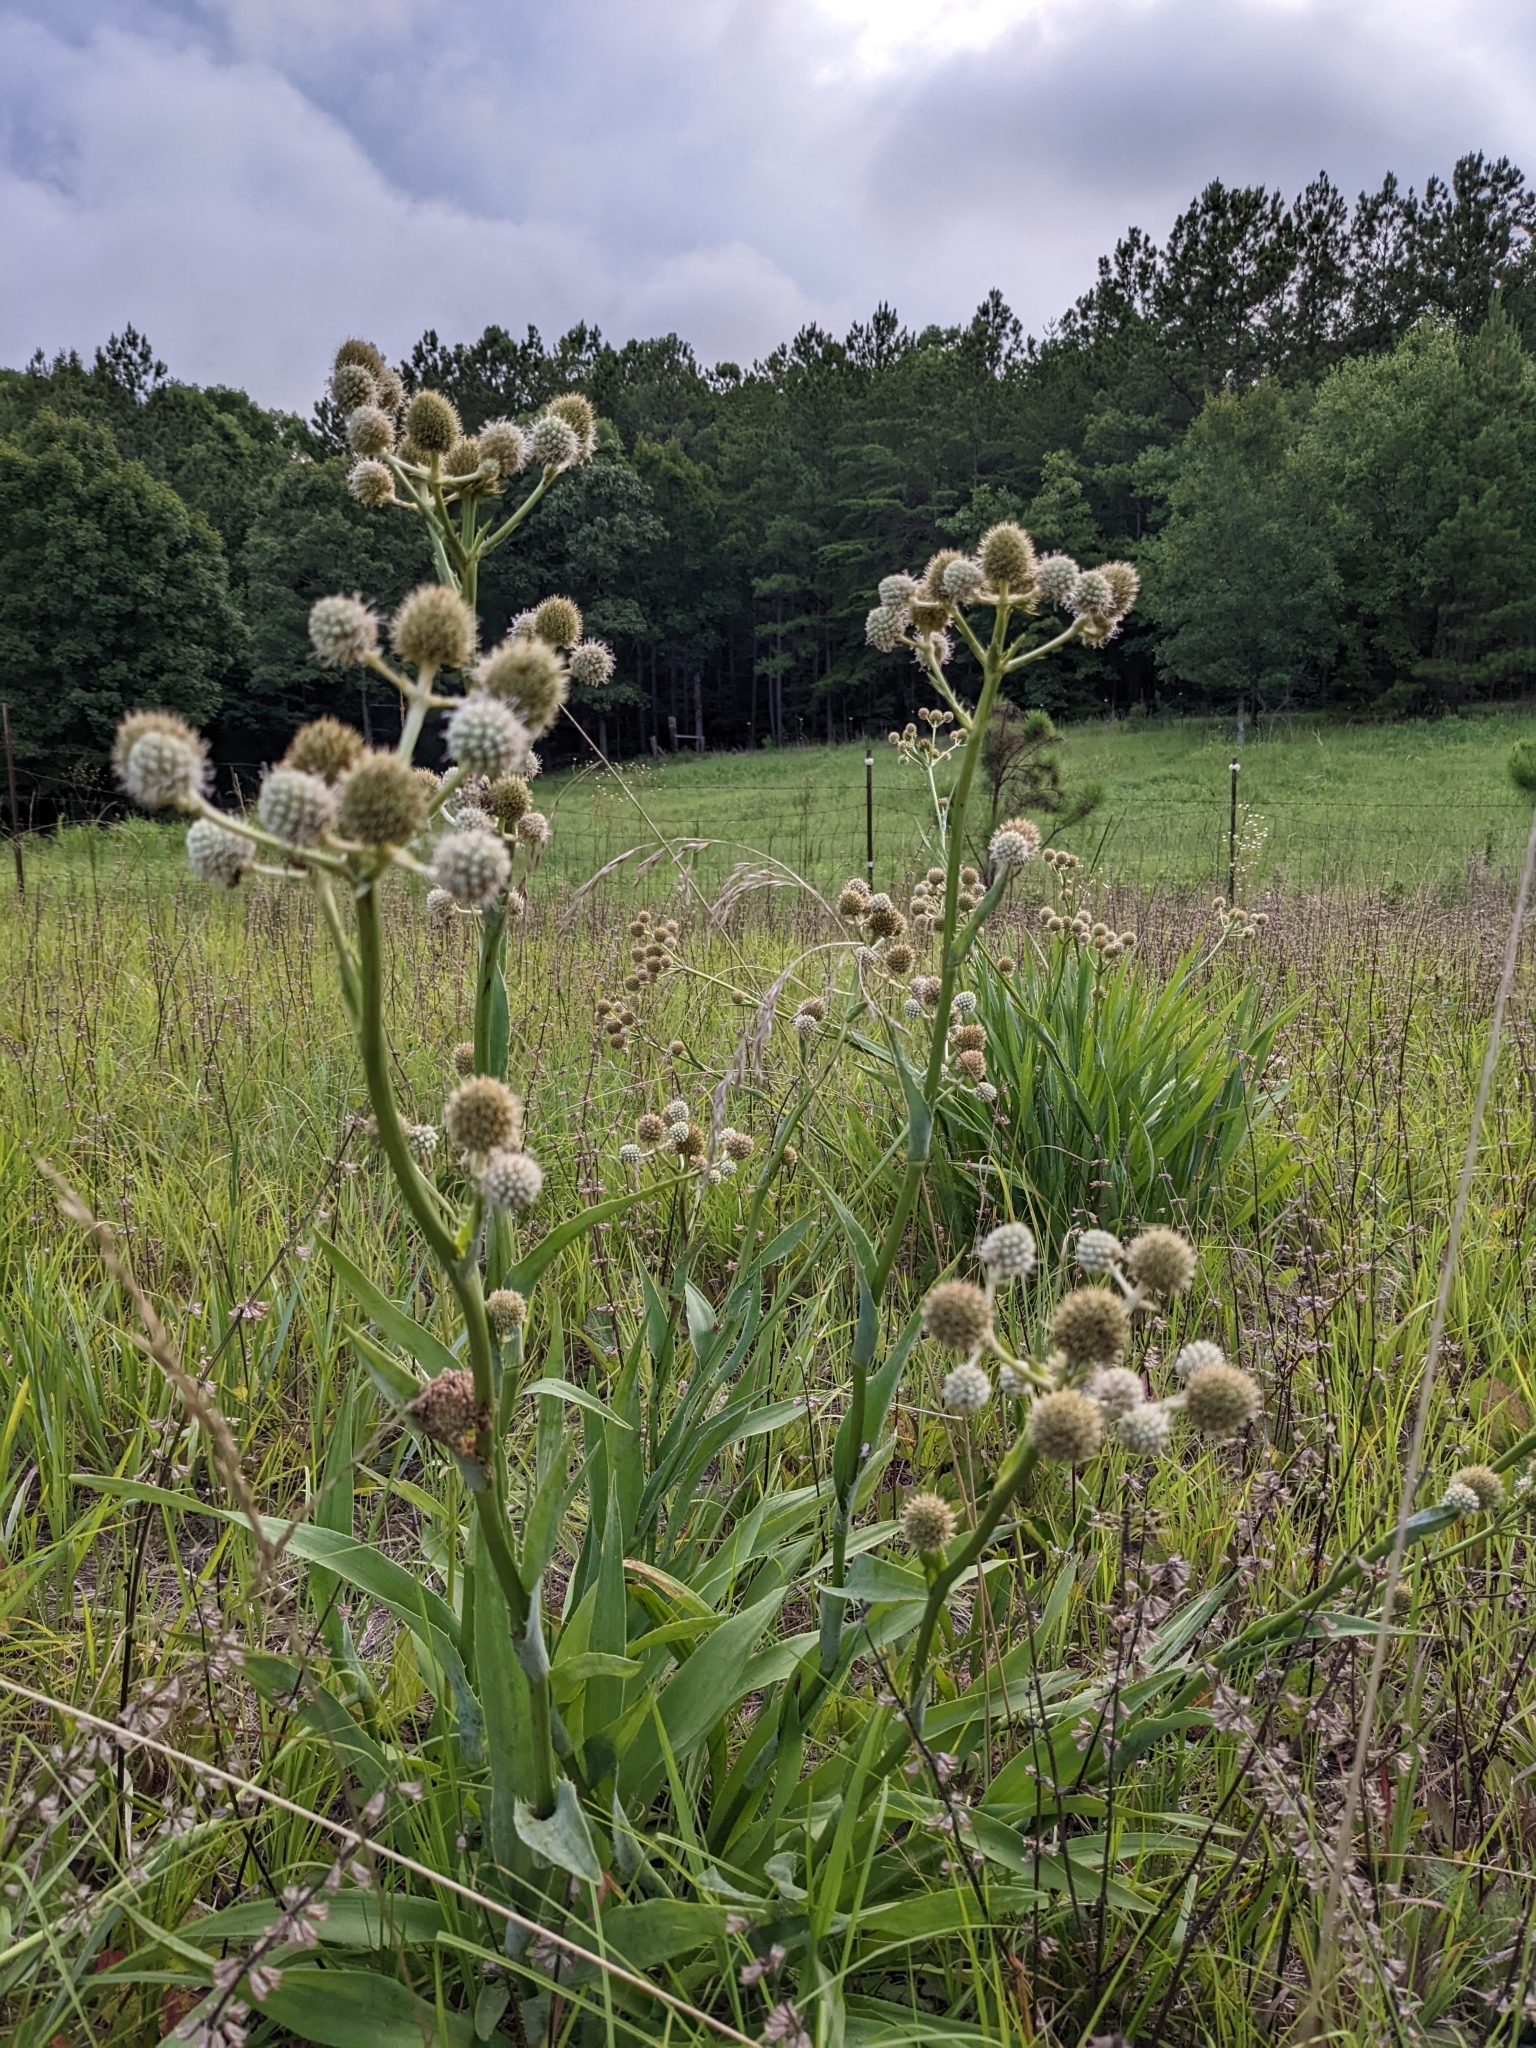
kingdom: Plantae
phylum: Tracheophyta
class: Magnoliopsida
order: Apiales
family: Apiaceae
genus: Eryngium
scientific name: Eryngium yuccifolium
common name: Button eryngo
